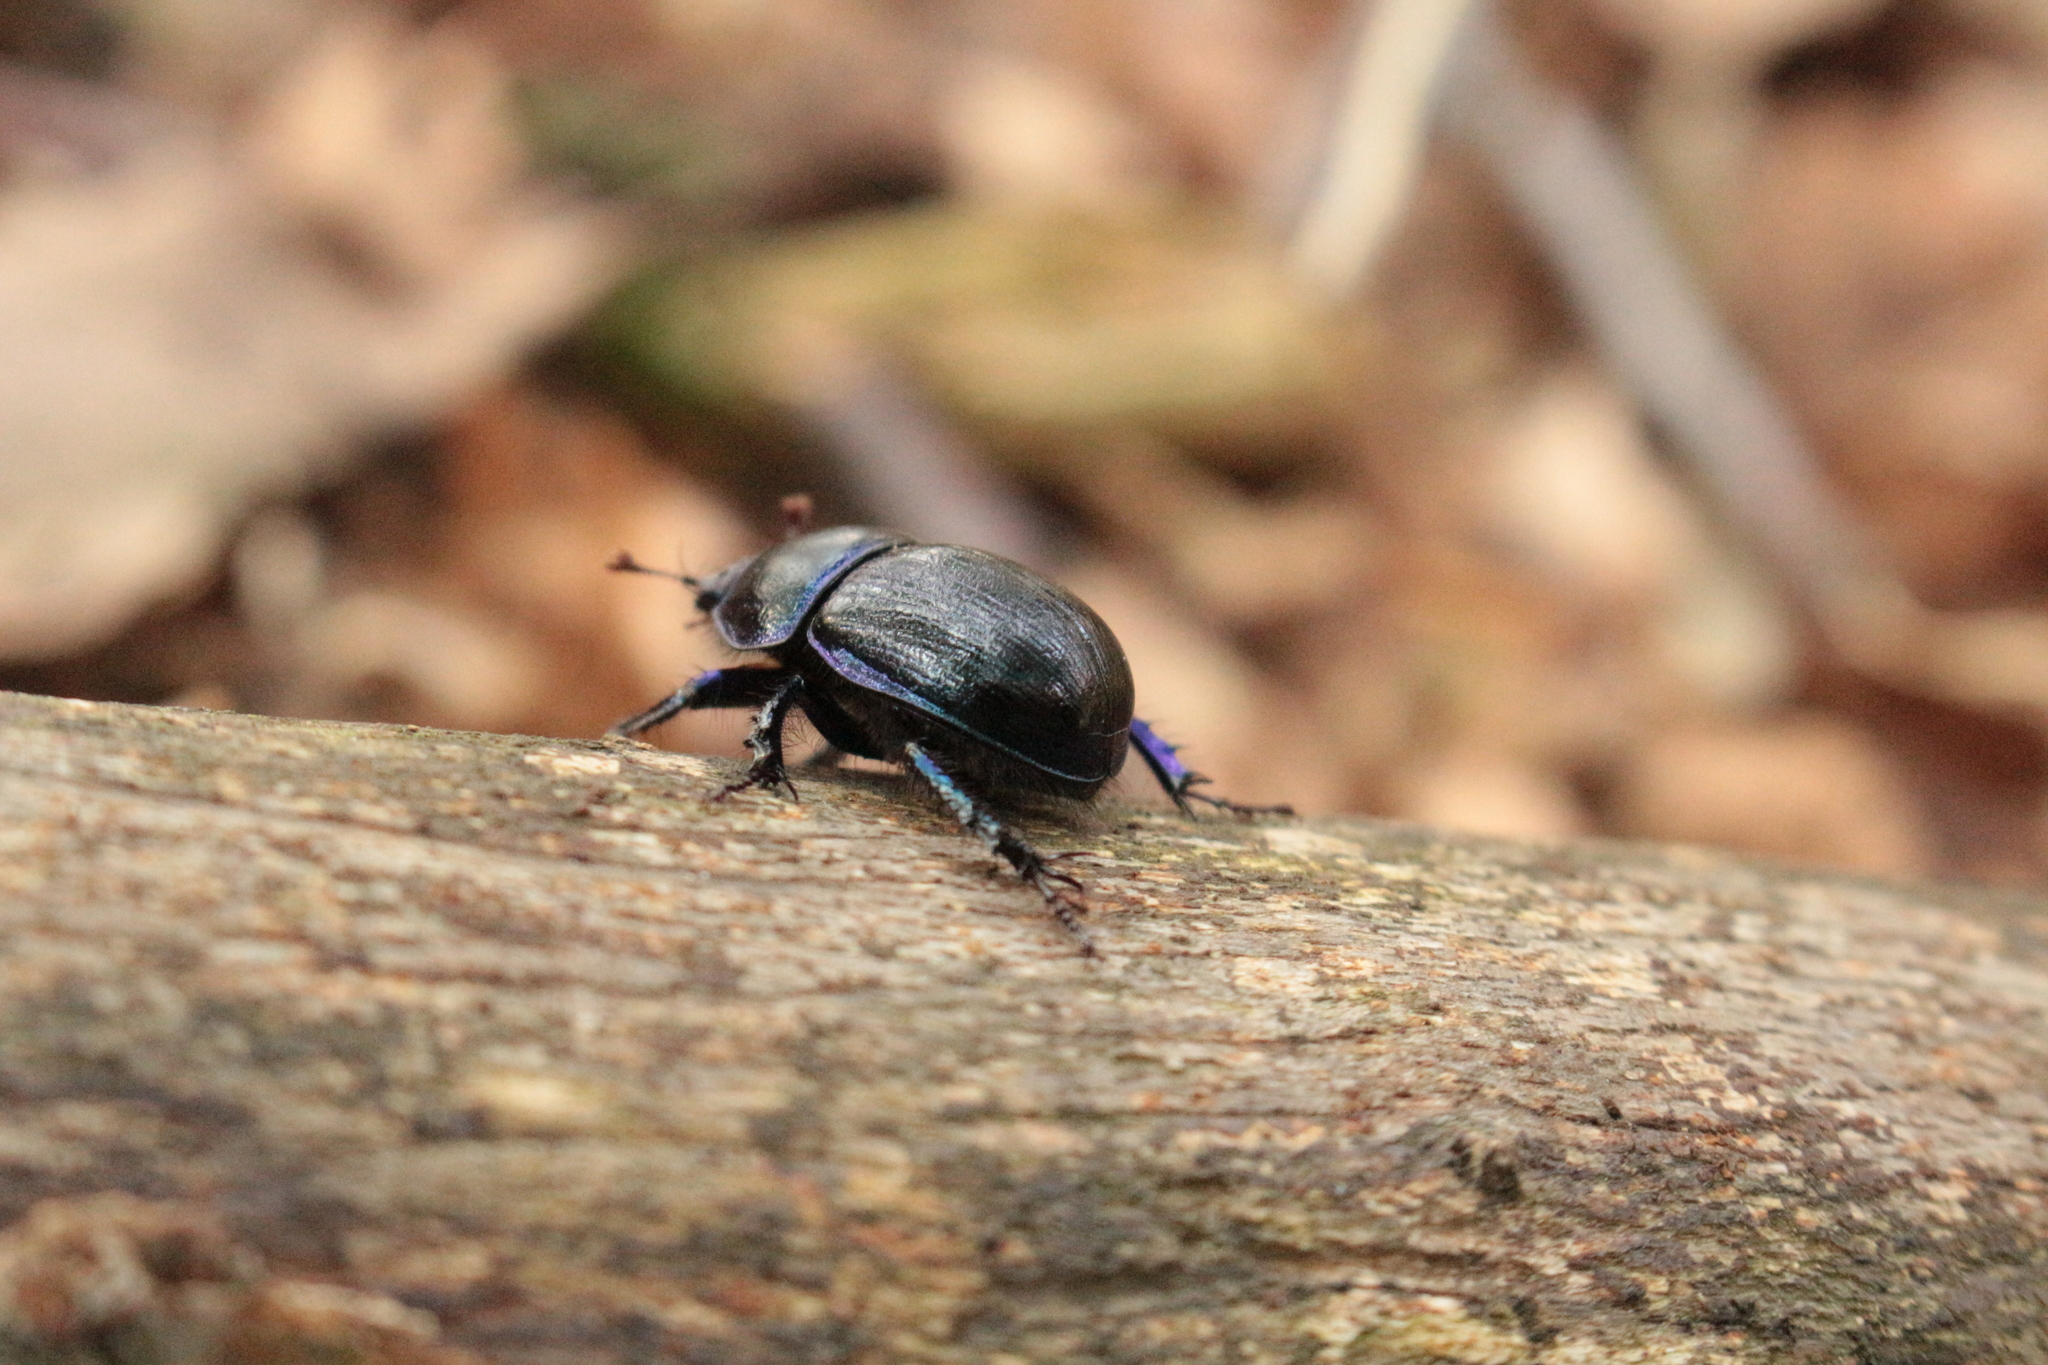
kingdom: Animalia
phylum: Arthropoda
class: Insecta
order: Coleoptera
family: Geotrupidae
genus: Anoplotrupes
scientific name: Anoplotrupes stercorosus
